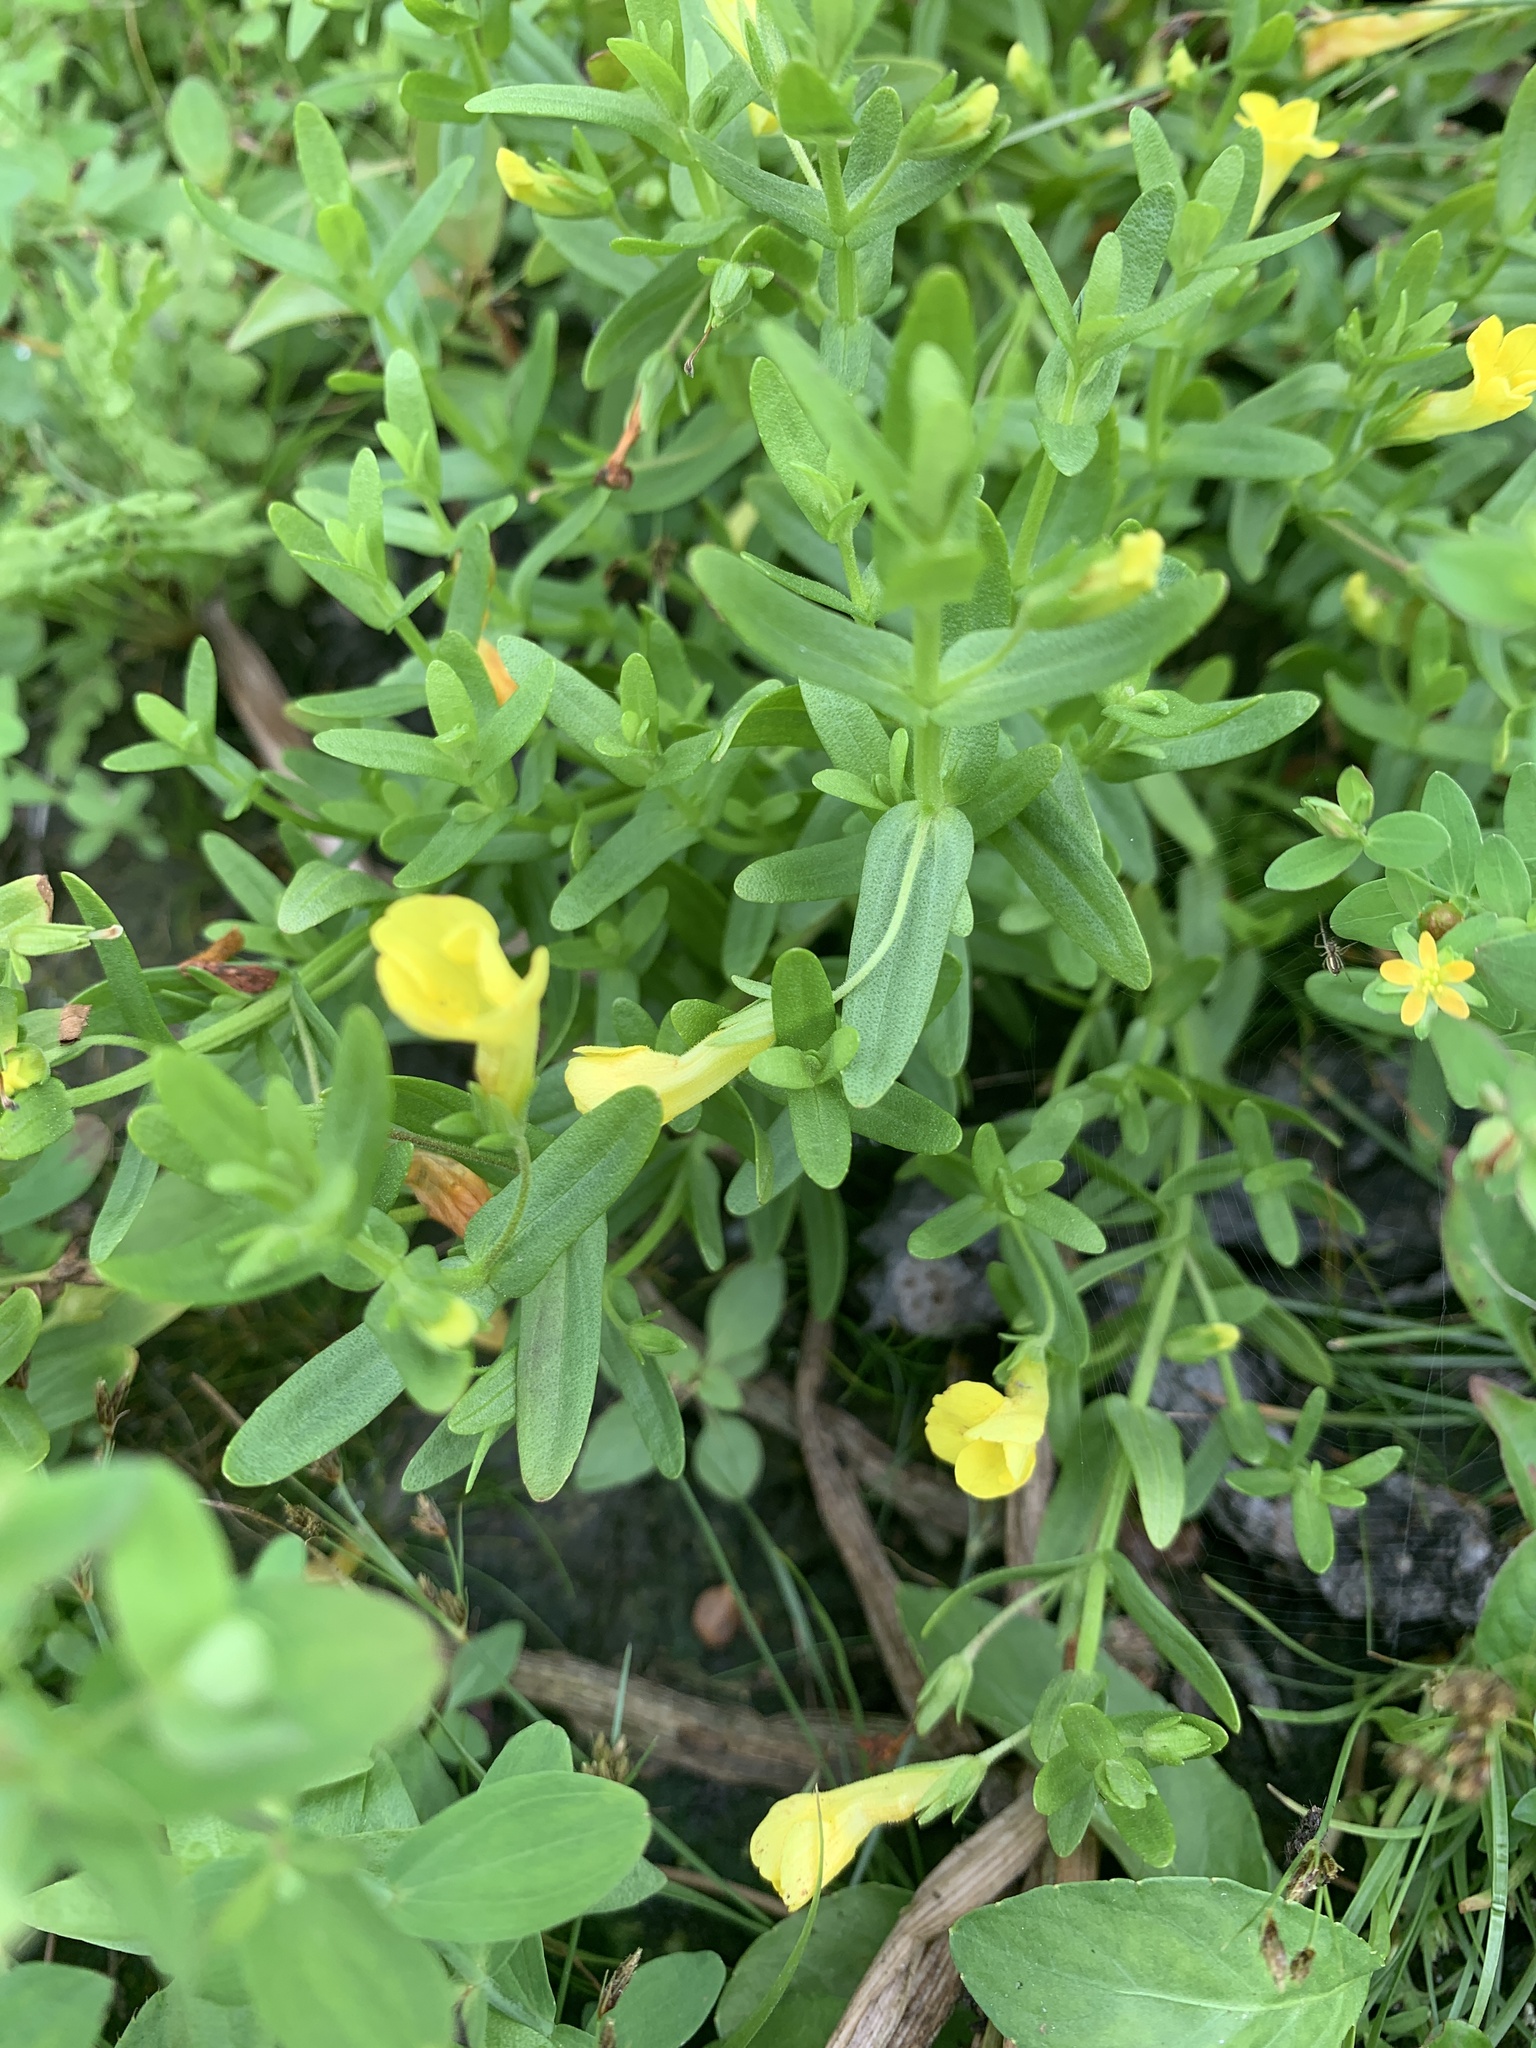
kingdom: Plantae
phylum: Tracheophyta
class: Magnoliopsida
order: Lamiales
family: Plantaginaceae
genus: Gratiola
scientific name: Gratiola lutea
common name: Golden hedge-hyssop
